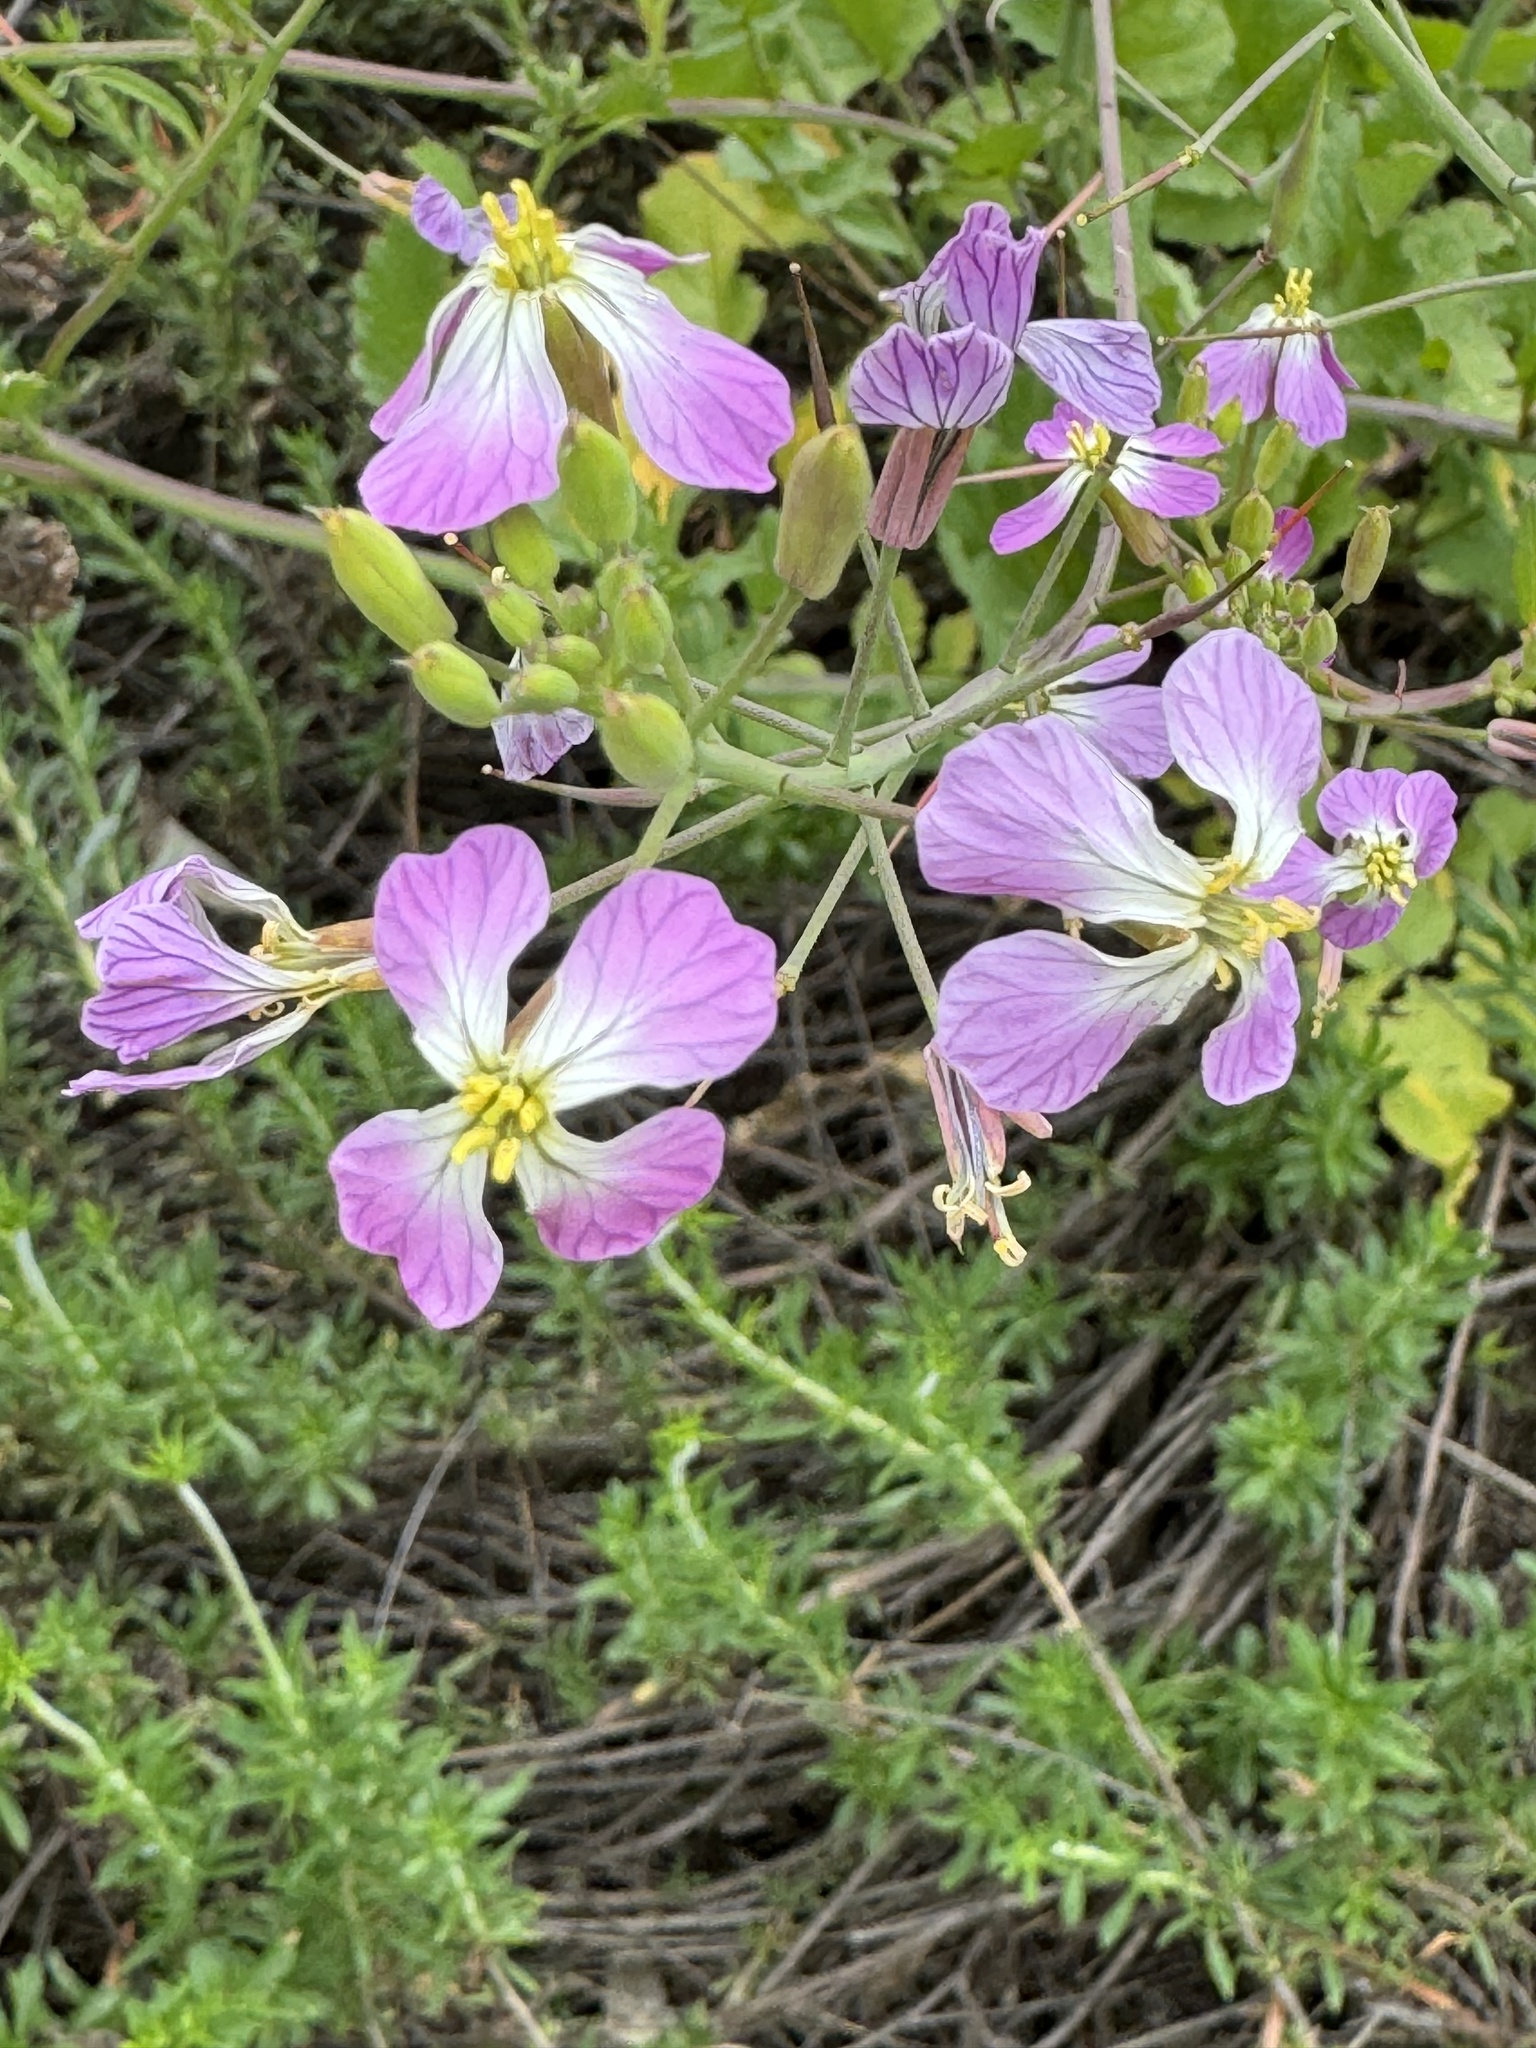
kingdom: Plantae
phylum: Tracheophyta
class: Magnoliopsida
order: Brassicales
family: Brassicaceae
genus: Raphanus
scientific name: Raphanus sativus
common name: Cultivated radish
